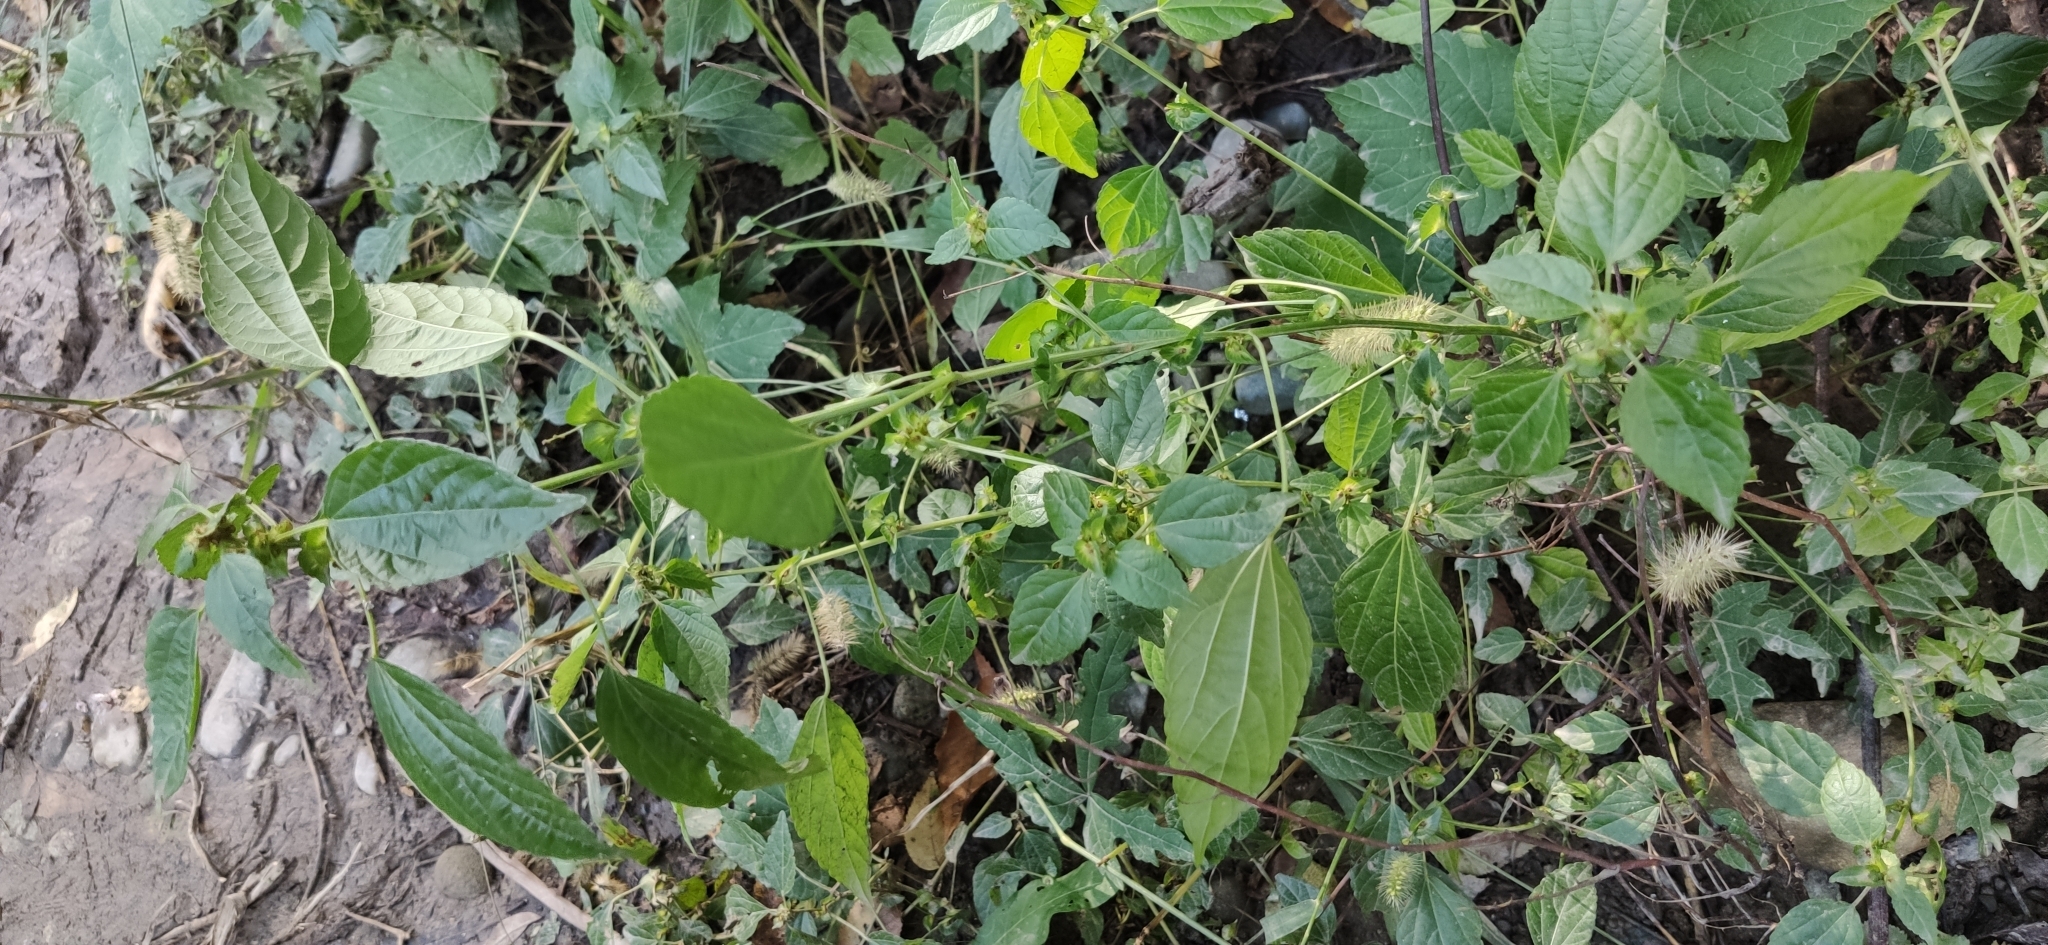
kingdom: Plantae
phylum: Tracheophyta
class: Magnoliopsida
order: Malpighiales
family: Euphorbiaceae
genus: Acalypha
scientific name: Acalypha australis
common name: Asian copperleaf
